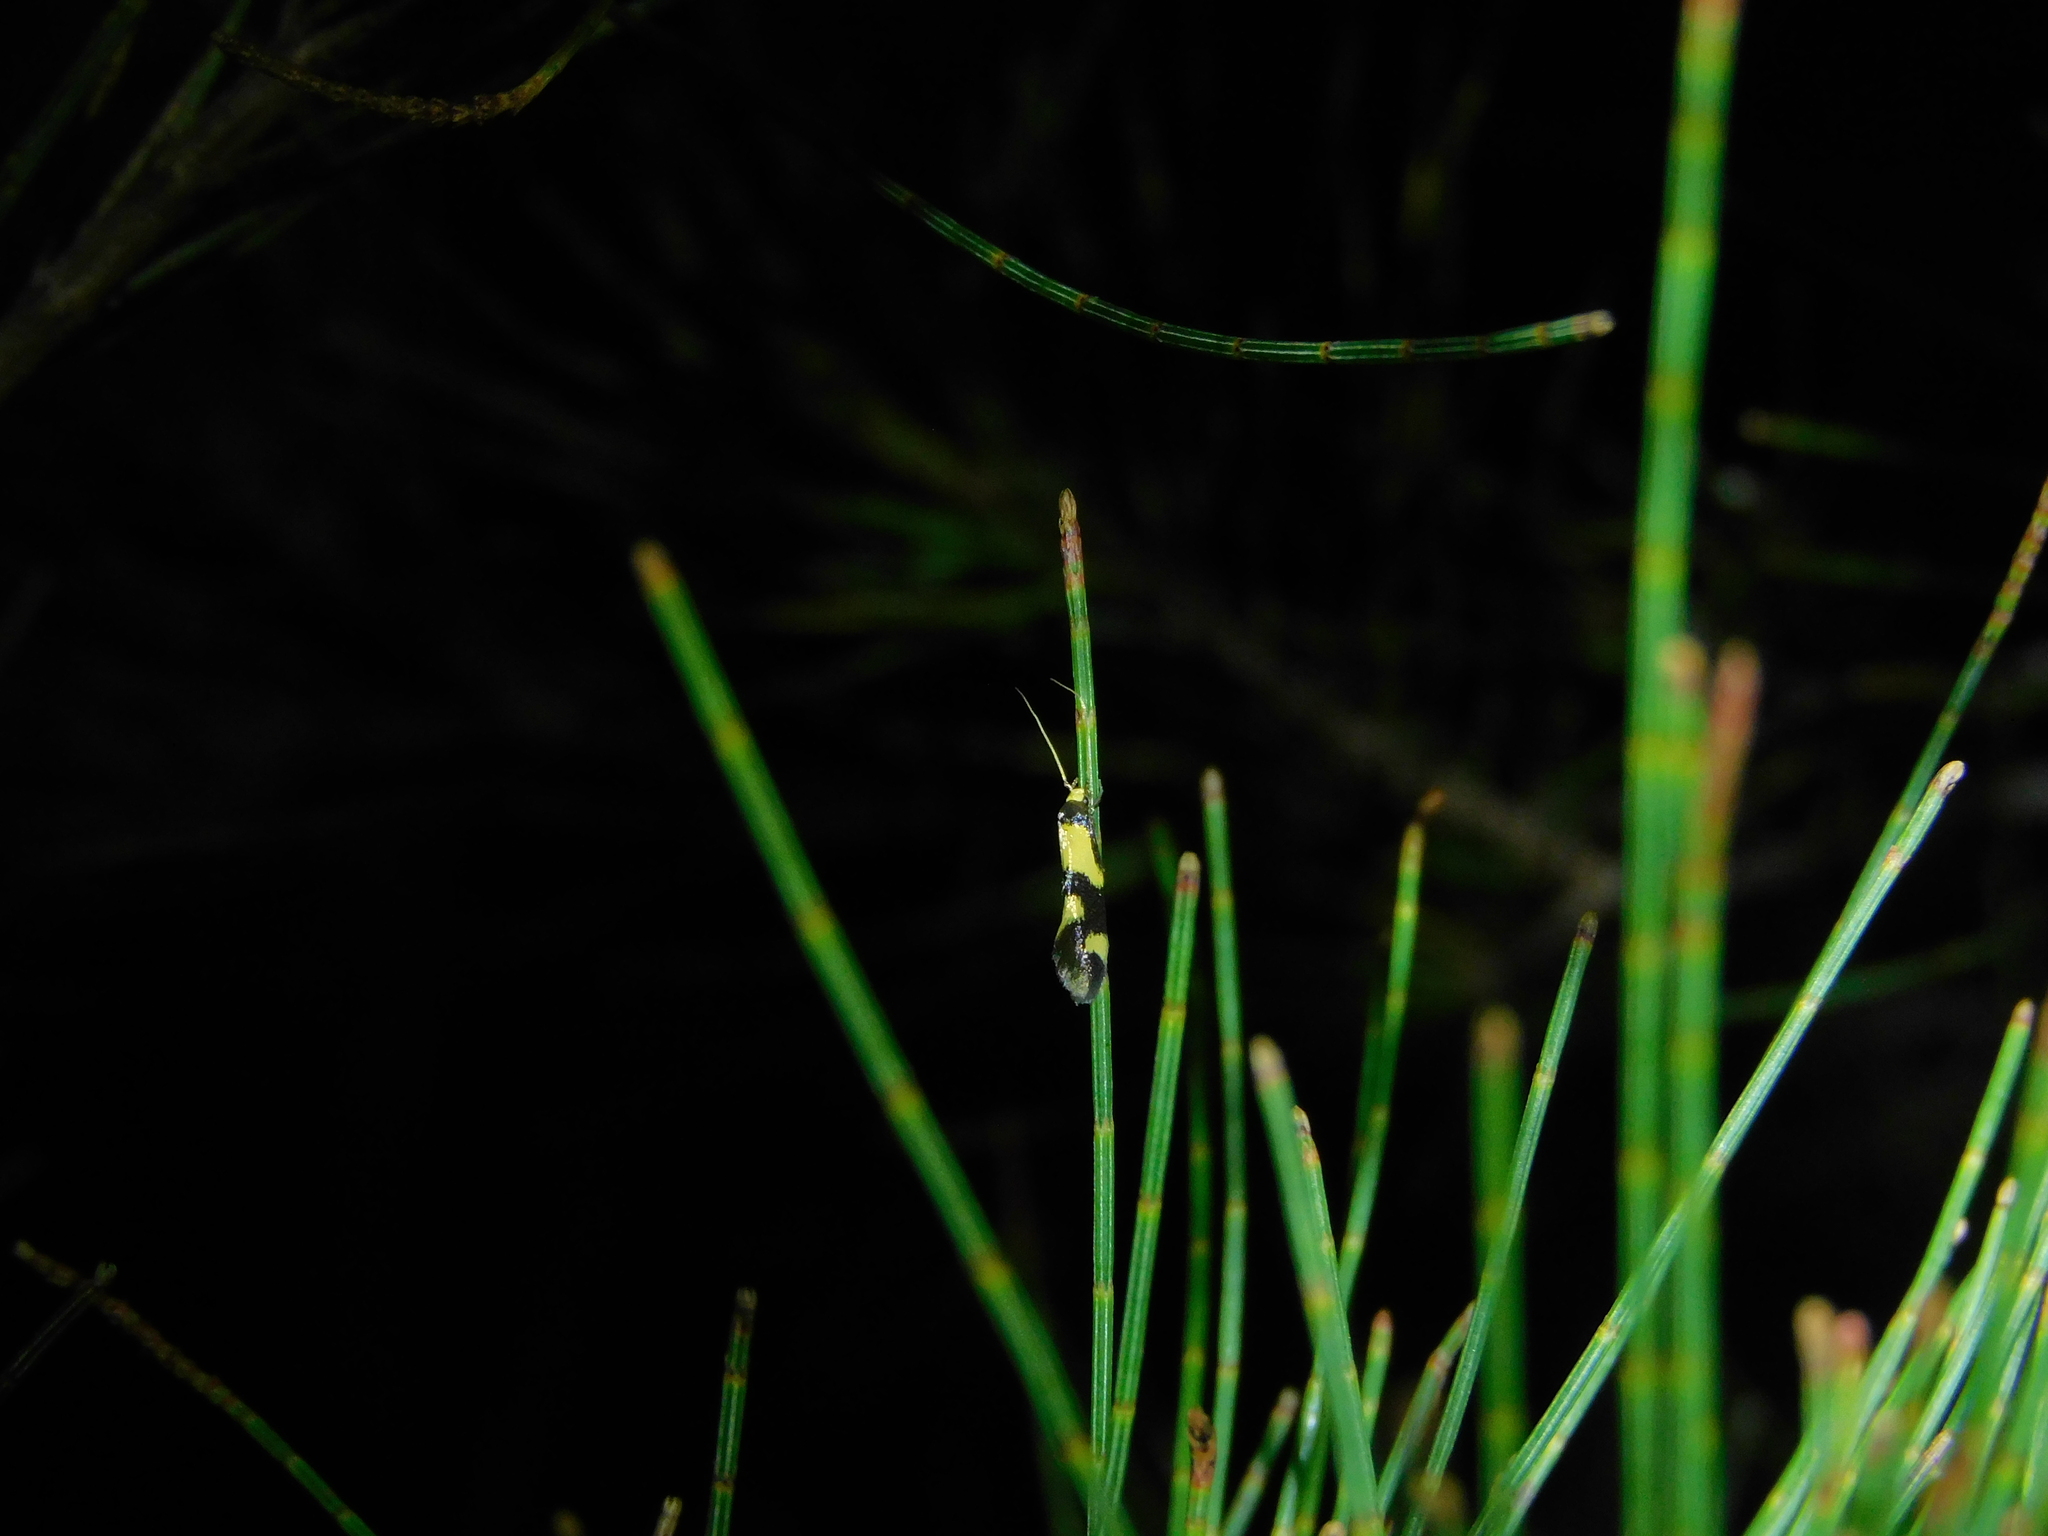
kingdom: Animalia
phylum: Arthropoda
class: Insecta
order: Lepidoptera
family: Tineidae
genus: Opogona
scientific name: Opogona comptella
